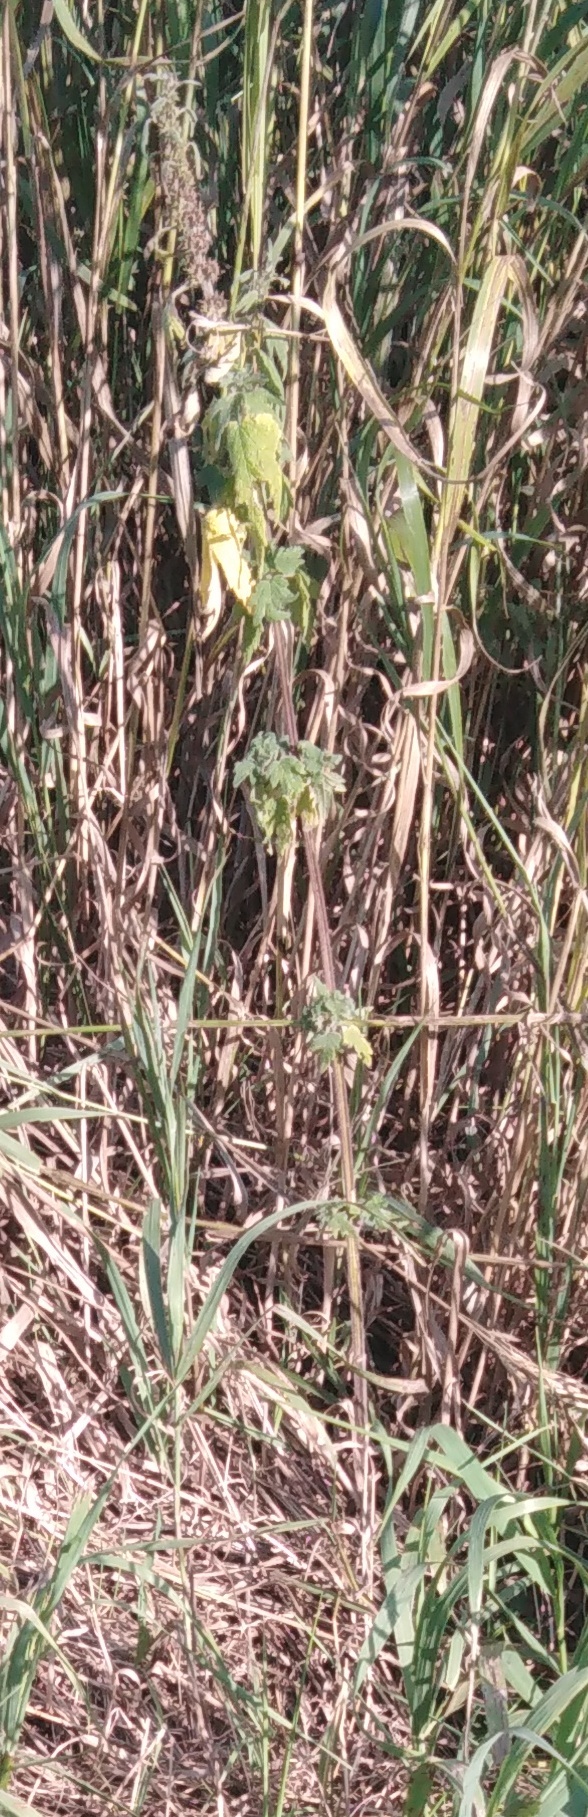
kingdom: Plantae
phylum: Tracheophyta
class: Magnoliopsida
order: Lamiales
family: Lamiaceae
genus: Leonurus
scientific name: Leonurus quinquelobatus
